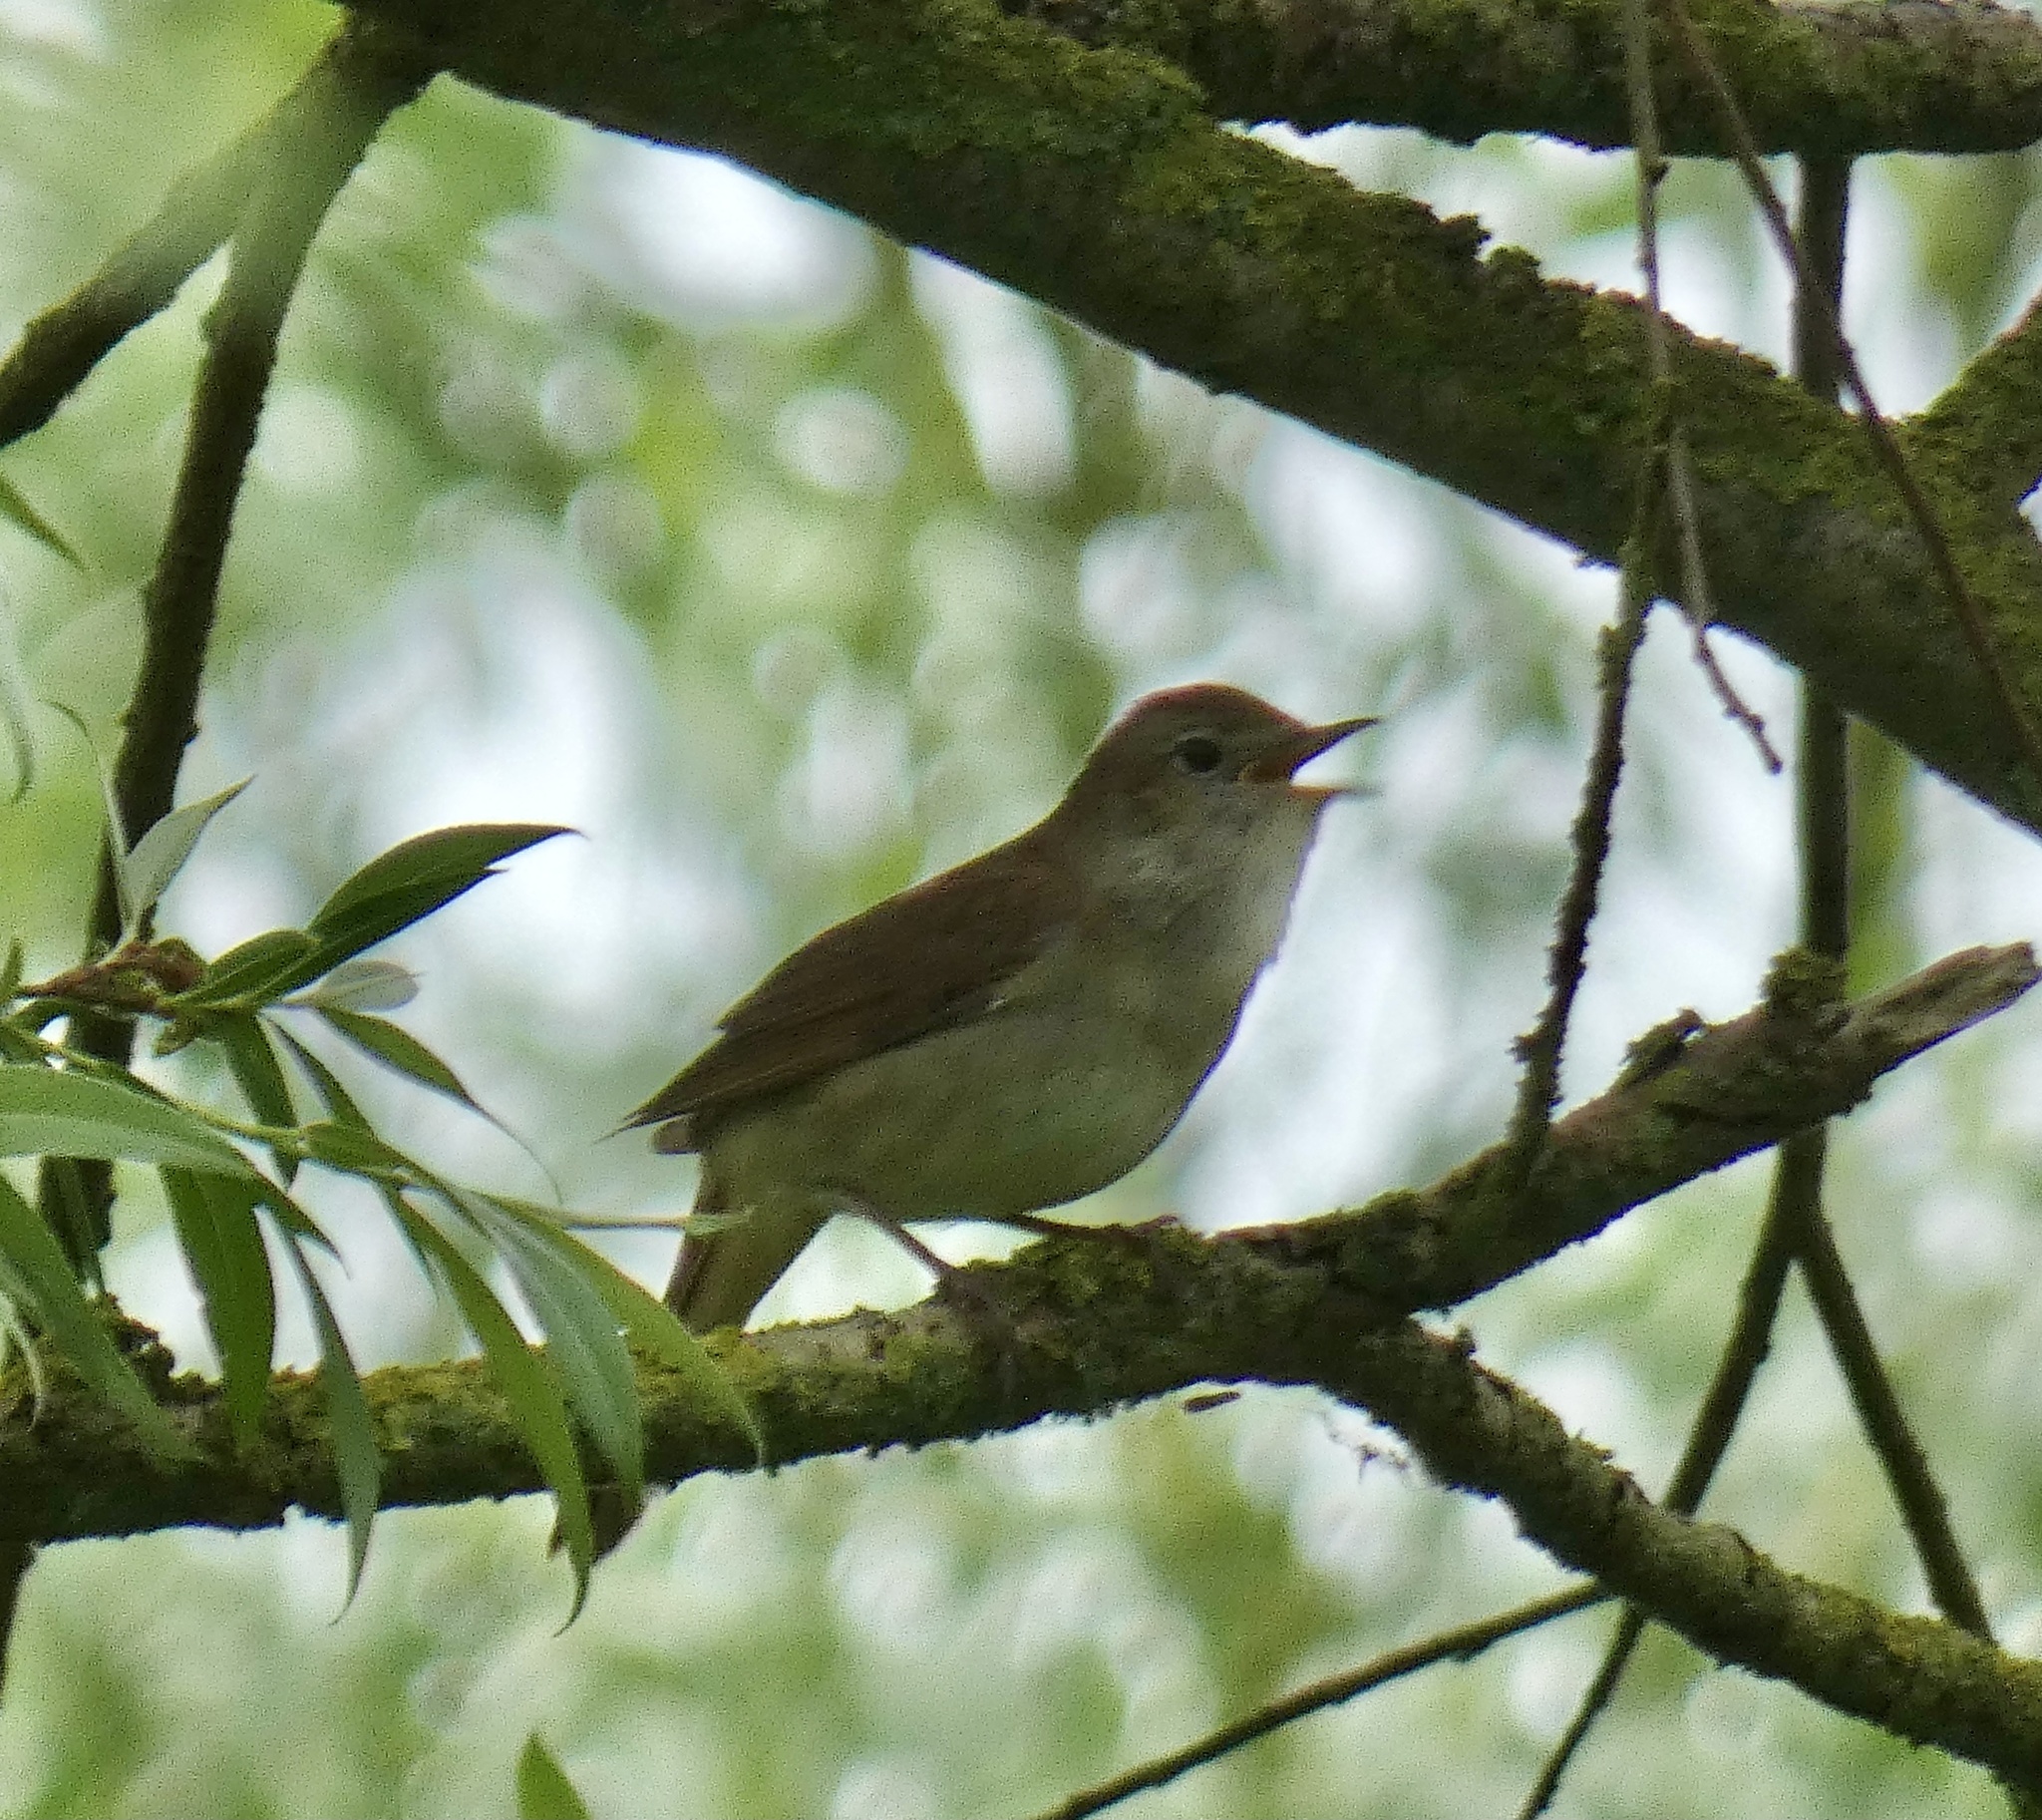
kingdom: Animalia
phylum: Chordata
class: Aves
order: Passeriformes
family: Muscicapidae
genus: Luscinia
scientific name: Luscinia megarhynchos
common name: Common nightingale
